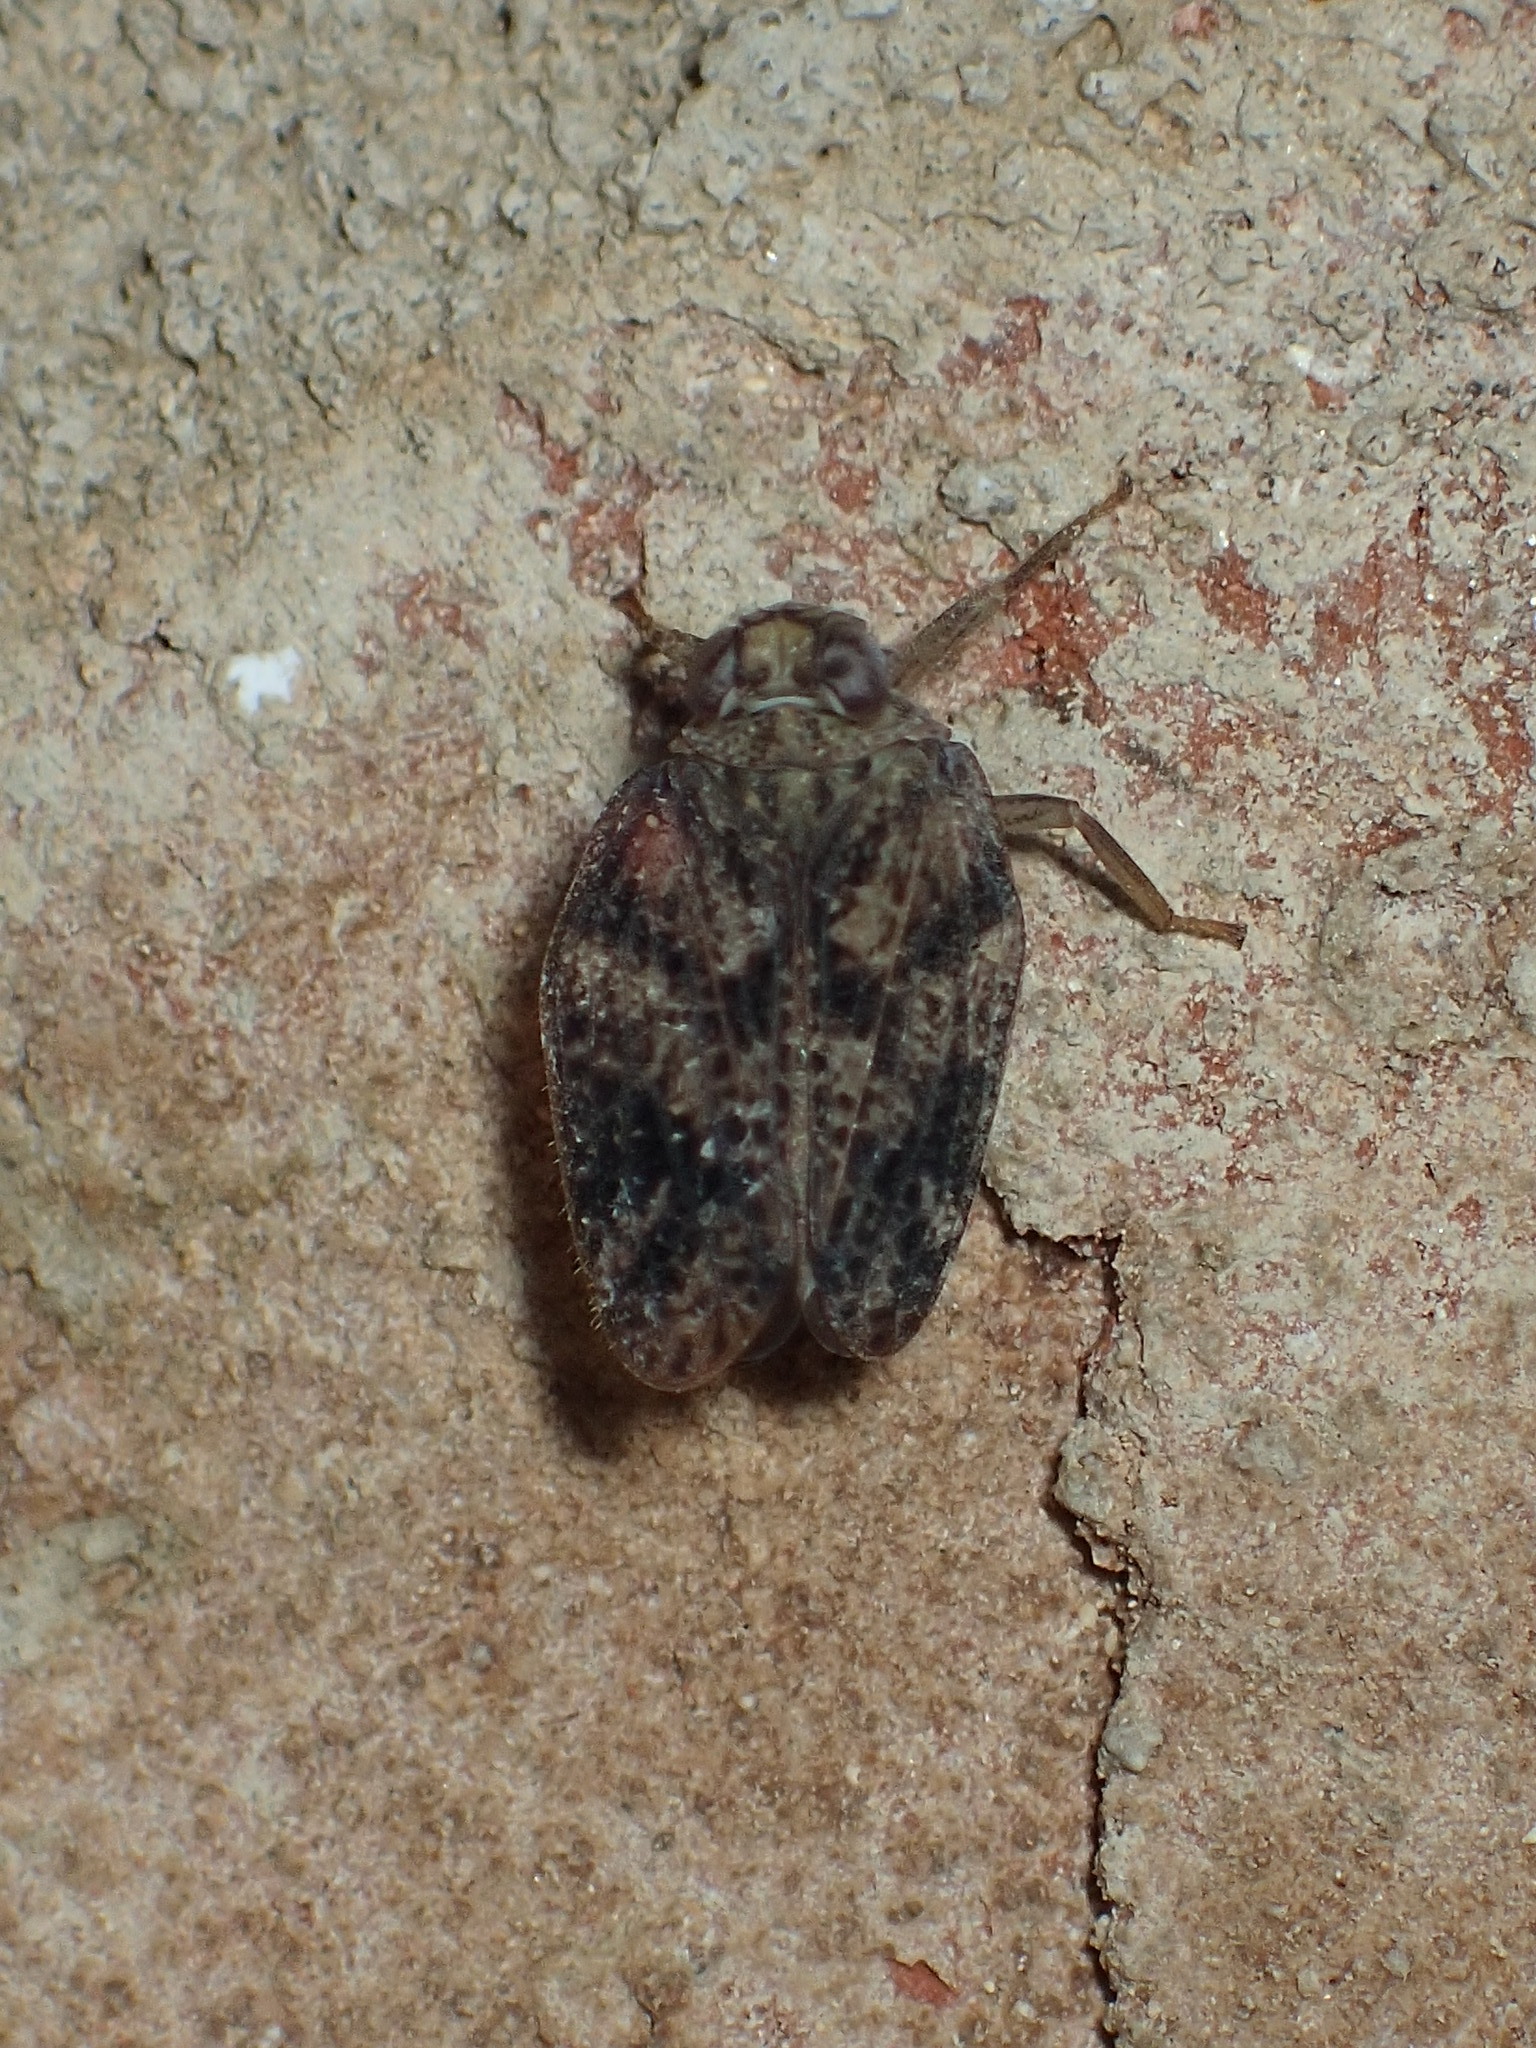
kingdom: Animalia
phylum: Arthropoda
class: Insecta
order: Hemiptera
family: Issidae
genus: Thionia
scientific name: Thionia bullata
